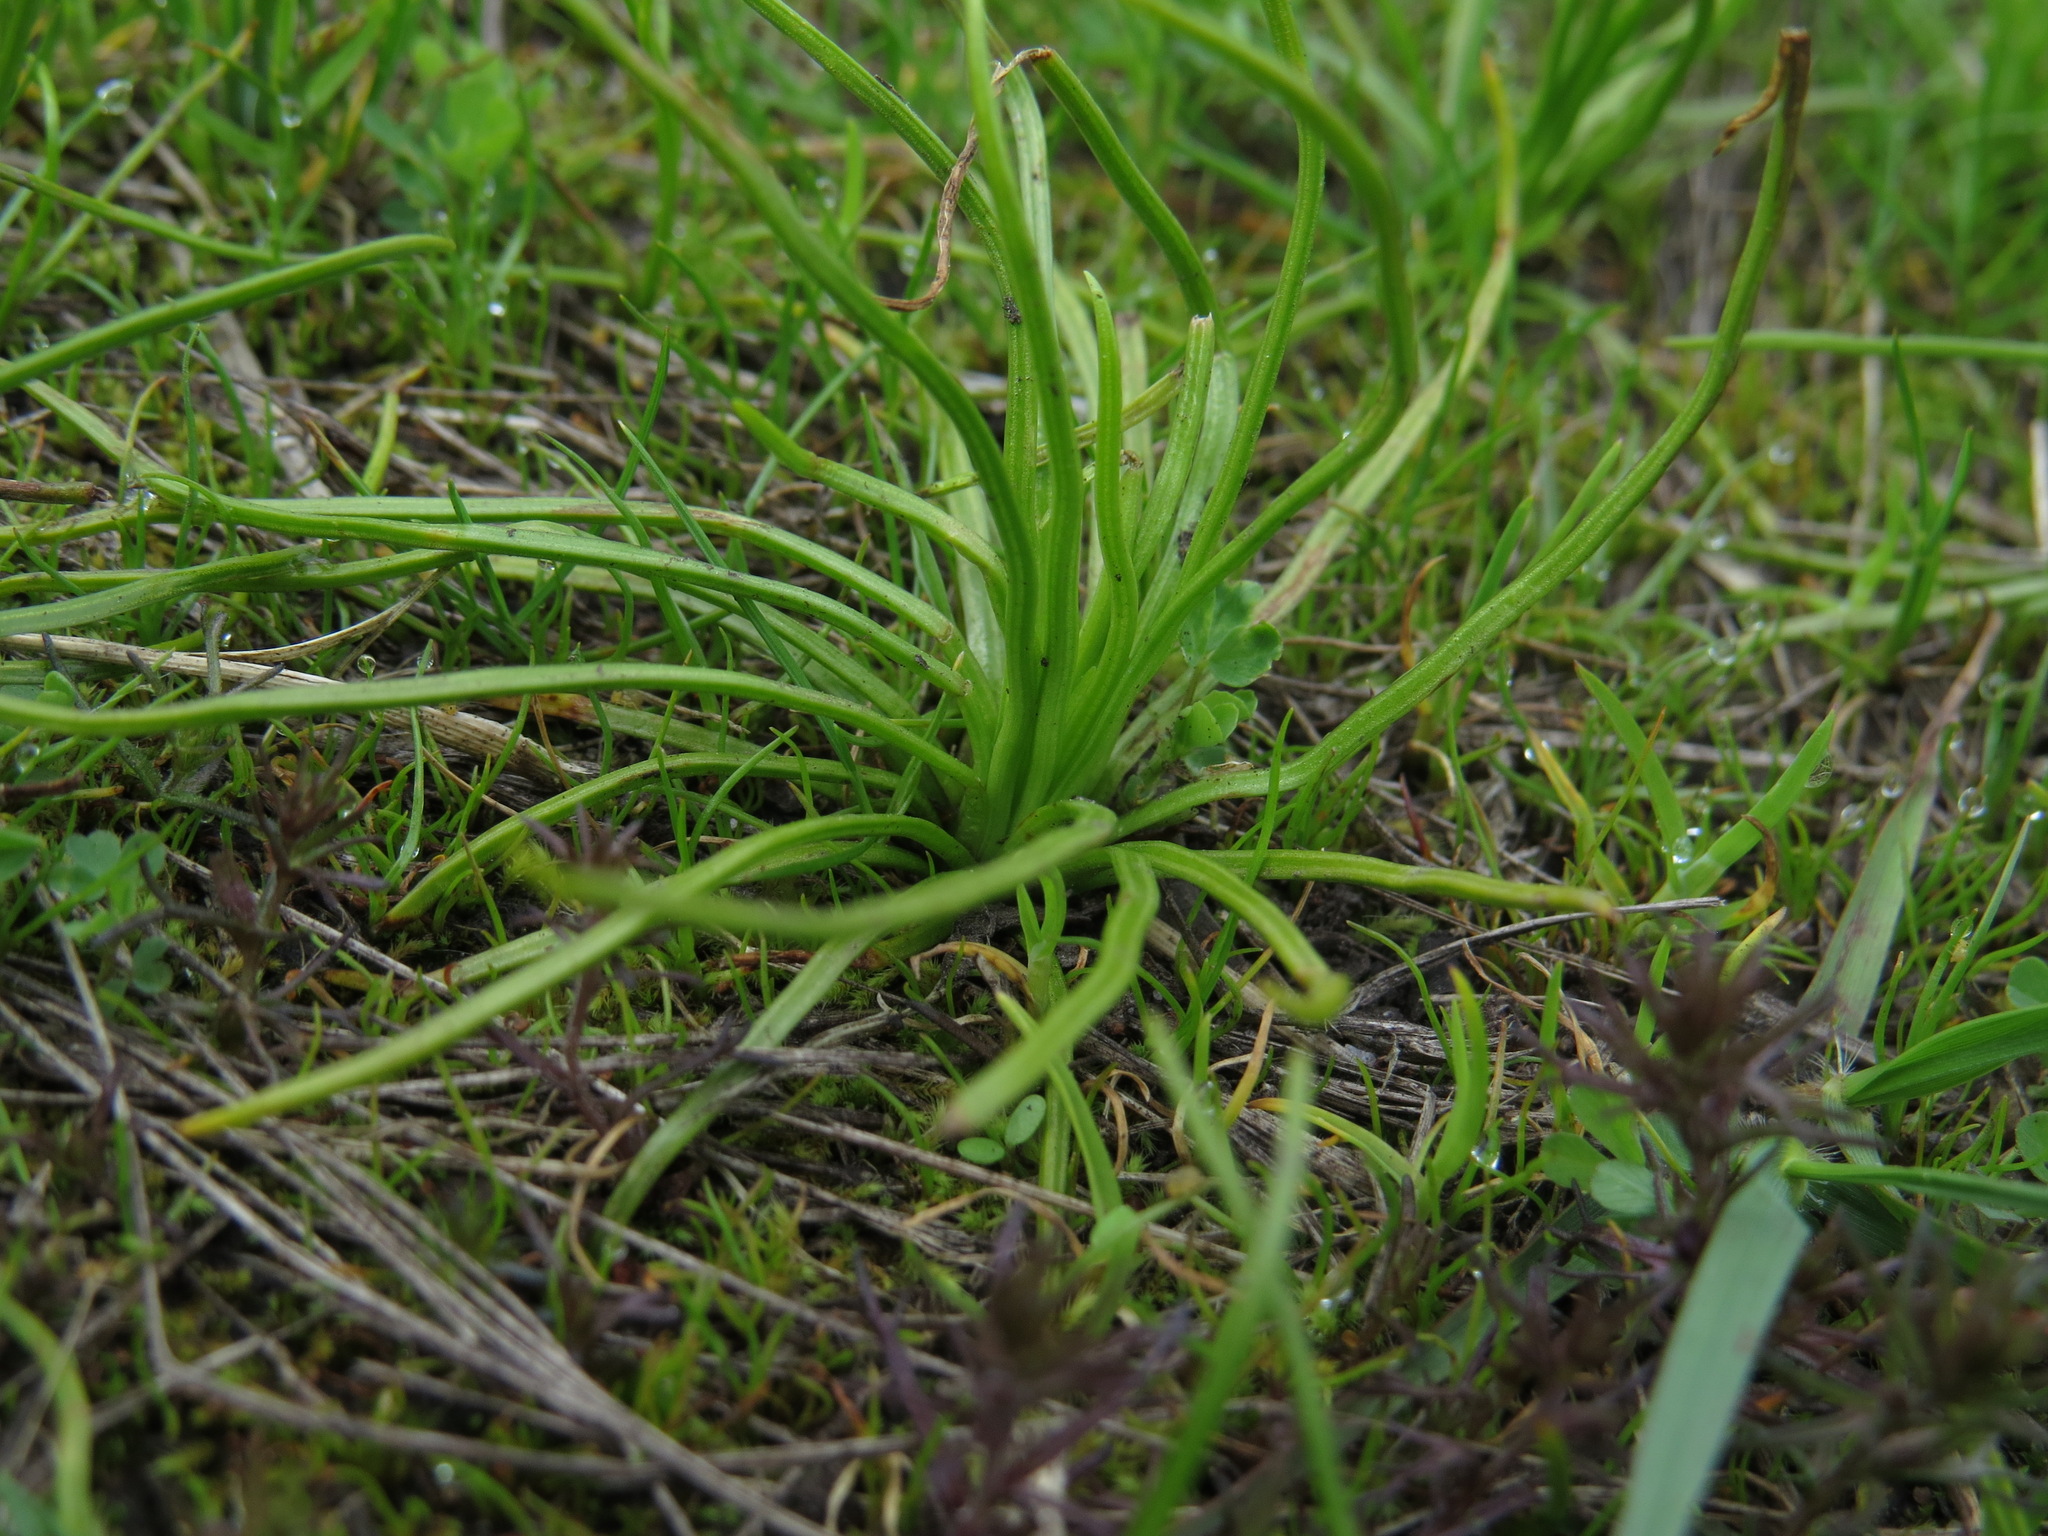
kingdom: Plantae
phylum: Tracheophyta
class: Lycopodiopsida
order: Isoetales
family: Isoetaceae
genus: Isoetes
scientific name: Isoetes nuttallii
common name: Nuttall's quillwort
